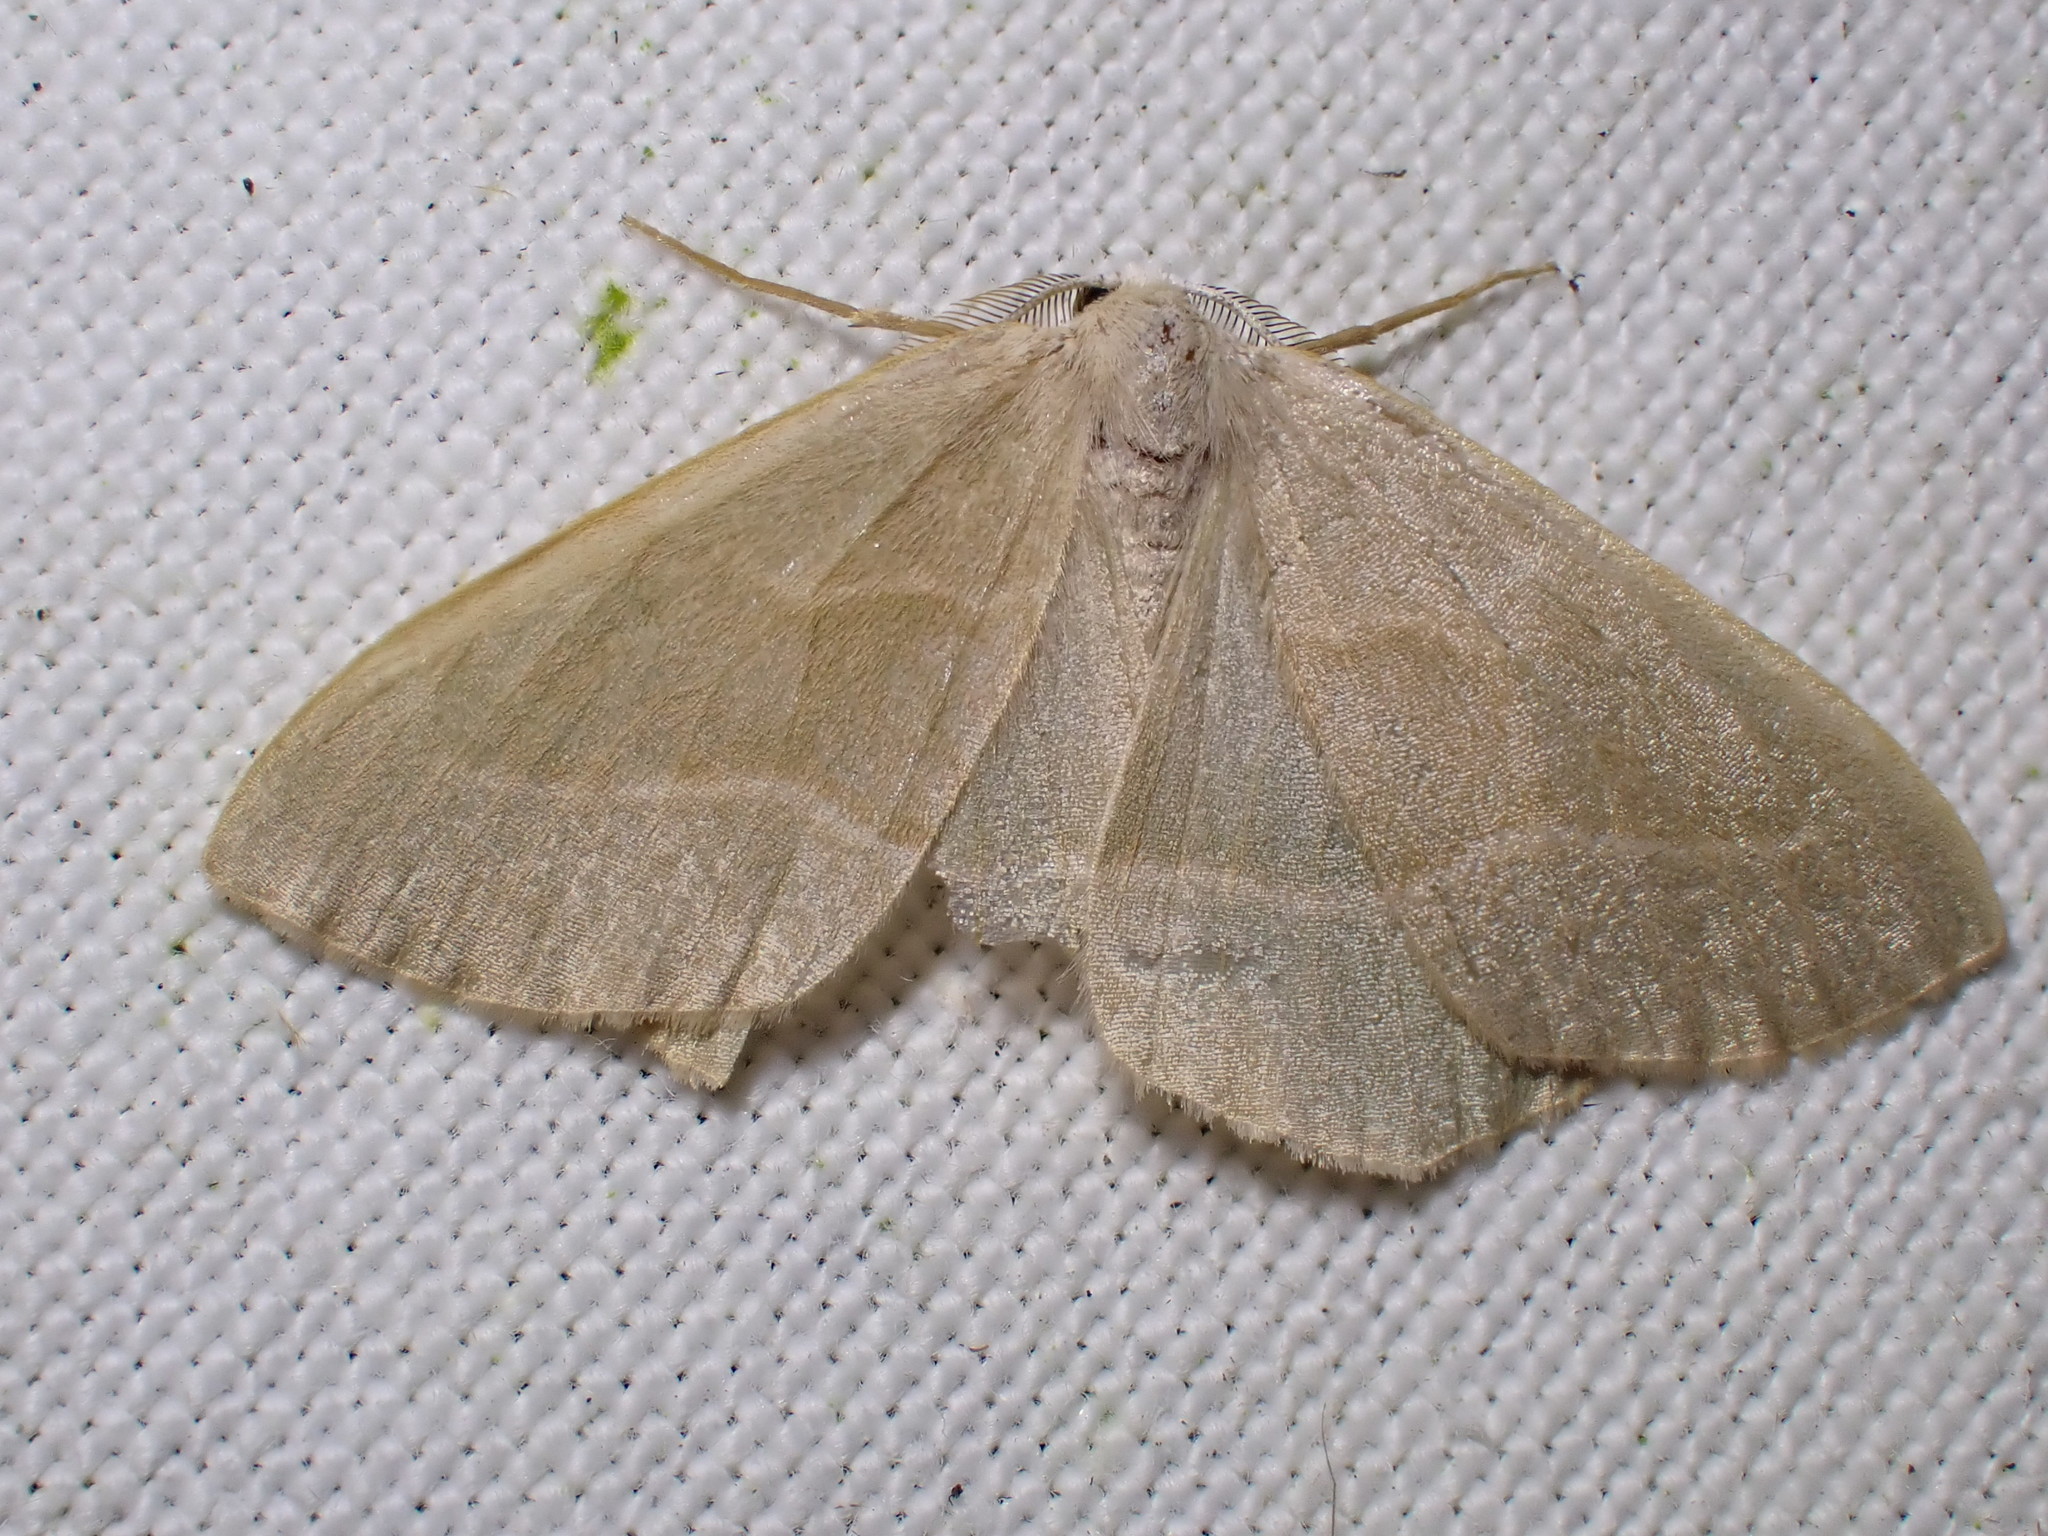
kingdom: Animalia
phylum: Arthropoda
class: Insecta
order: Lepidoptera
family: Geometridae
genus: Hylaea
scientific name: Hylaea fasciaria
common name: Barred red
